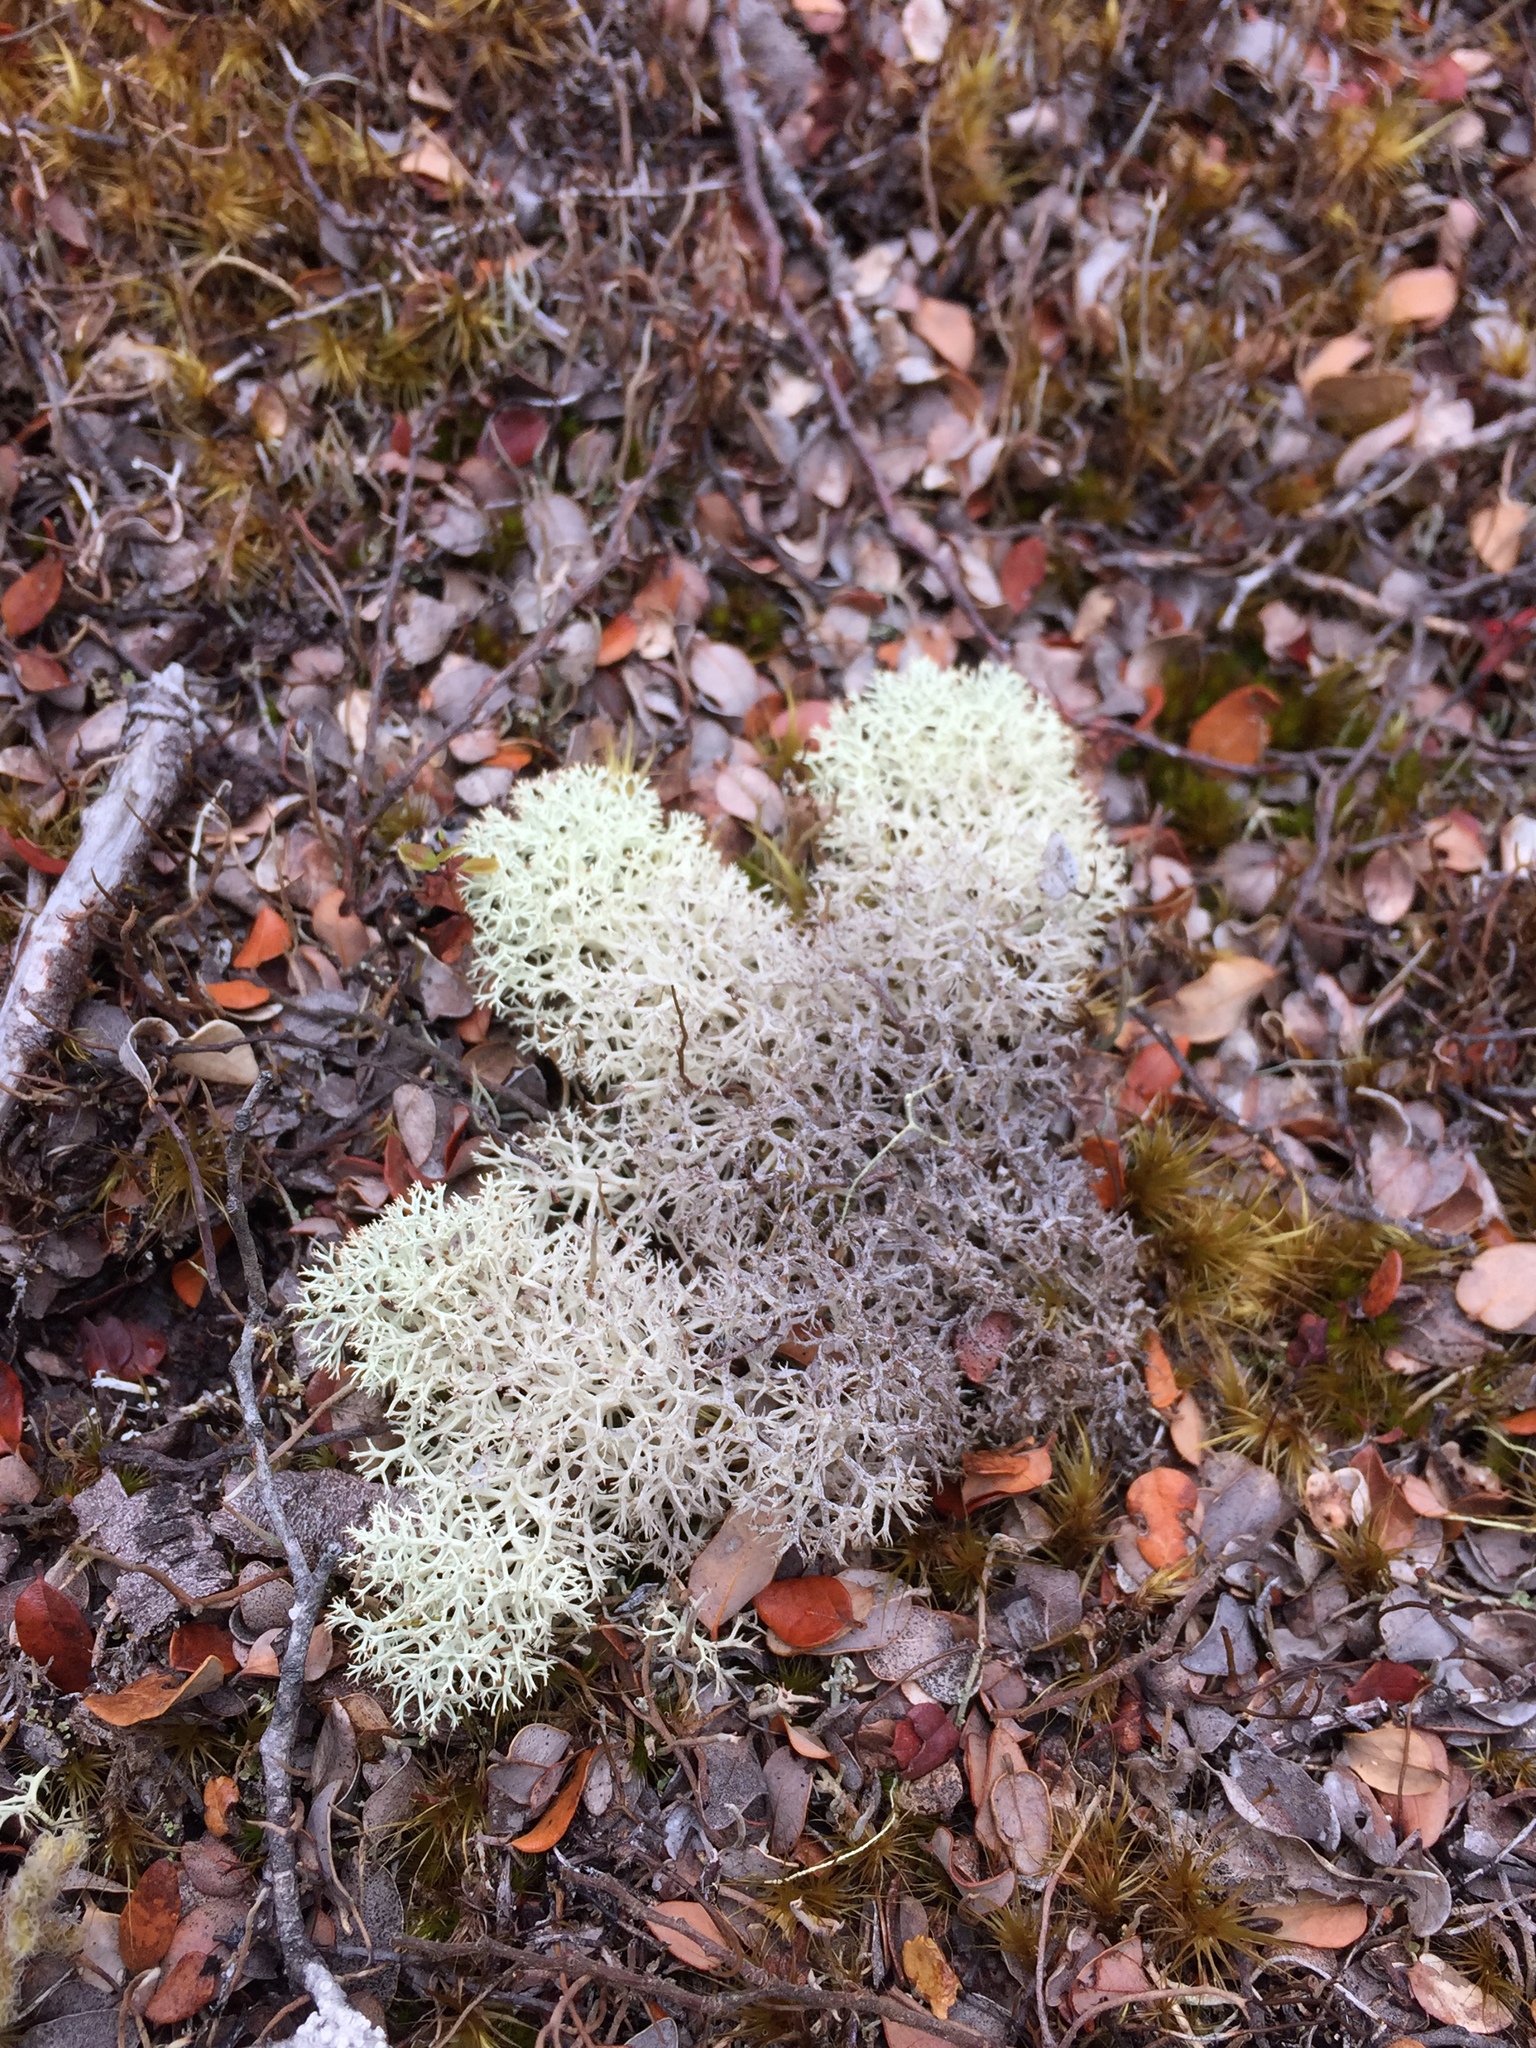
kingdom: Fungi
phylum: Ascomycota
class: Lecanoromycetes
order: Lecanorales
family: Cladoniaceae
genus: Cladonia
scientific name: Cladonia confusa
